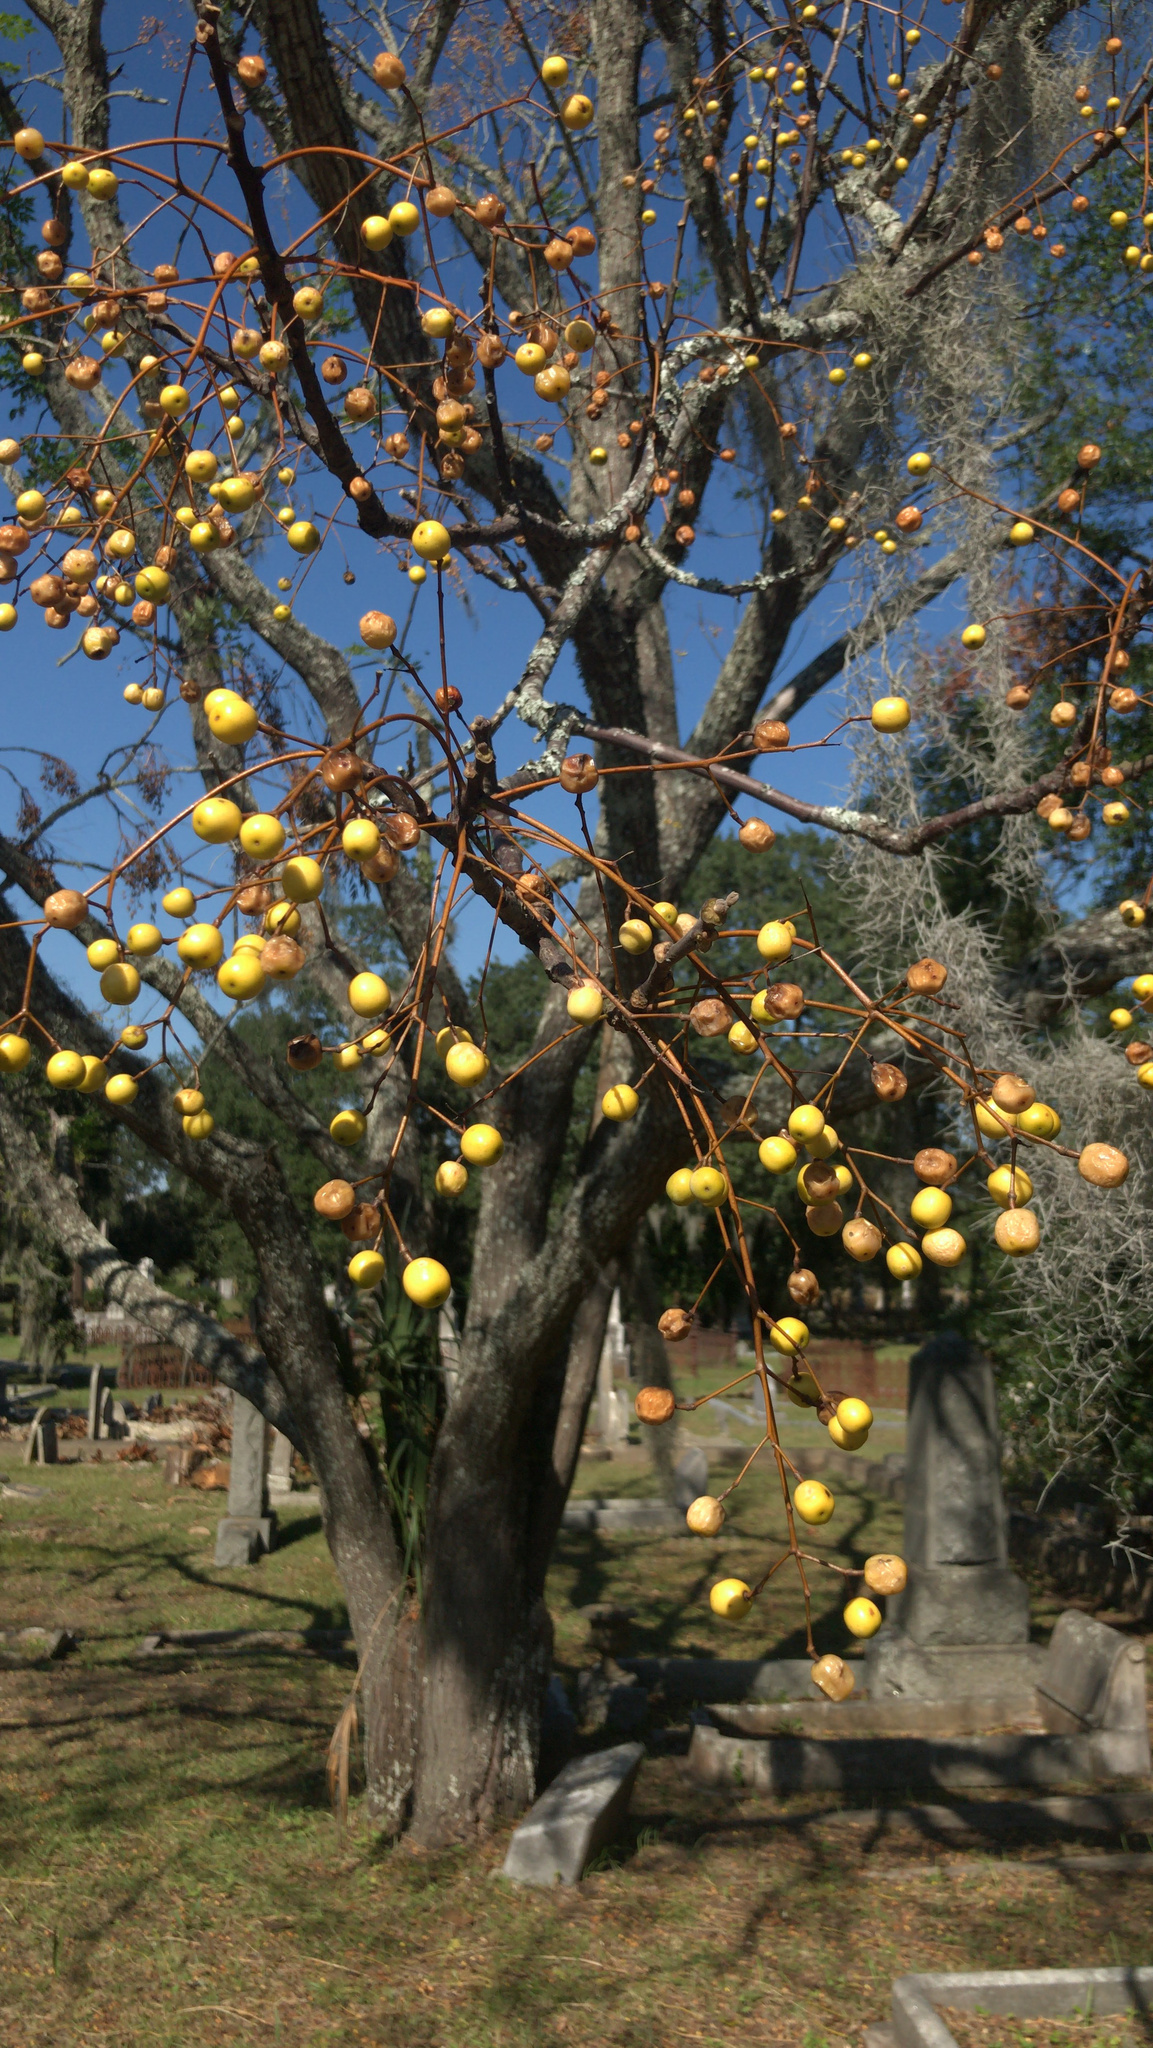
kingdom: Plantae
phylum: Tracheophyta
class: Magnoliopsida
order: Sapindales
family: Meliaceae
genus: Melia
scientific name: Melia azedarach
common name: Chinaberrytree
